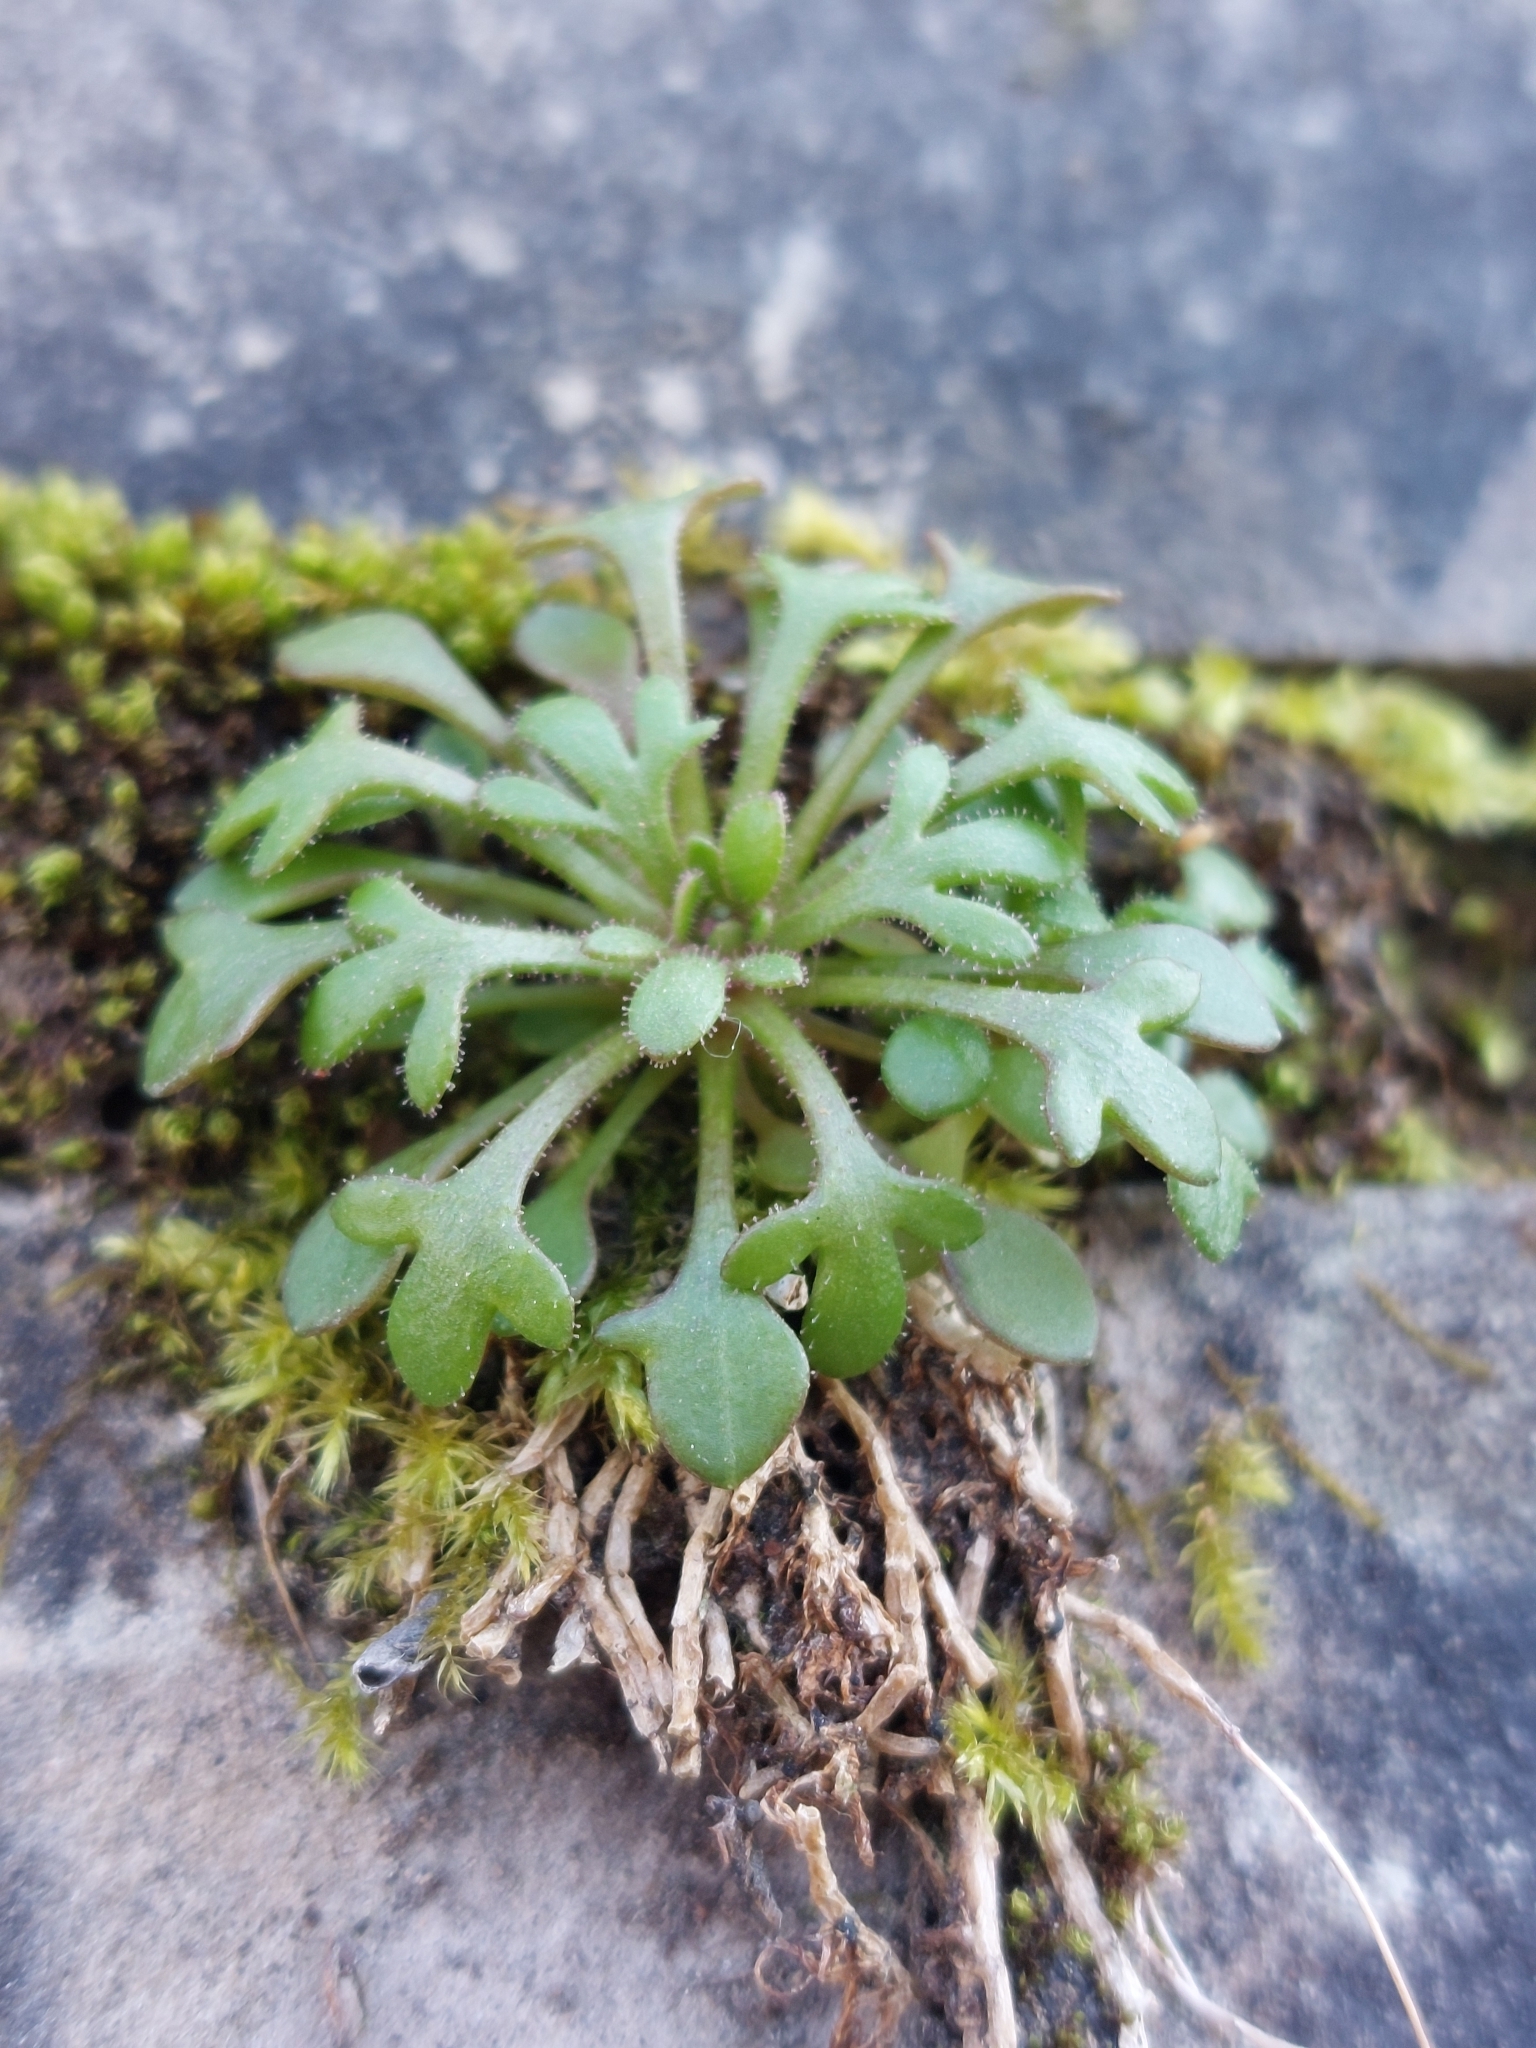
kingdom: Plantae
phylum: Tracheophyta
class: Magnoliopsida
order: Saxifragales
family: Saxifragaceae
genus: Saxifraga
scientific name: Saxifraga tridactylites
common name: Rue-leaved saxifrage
